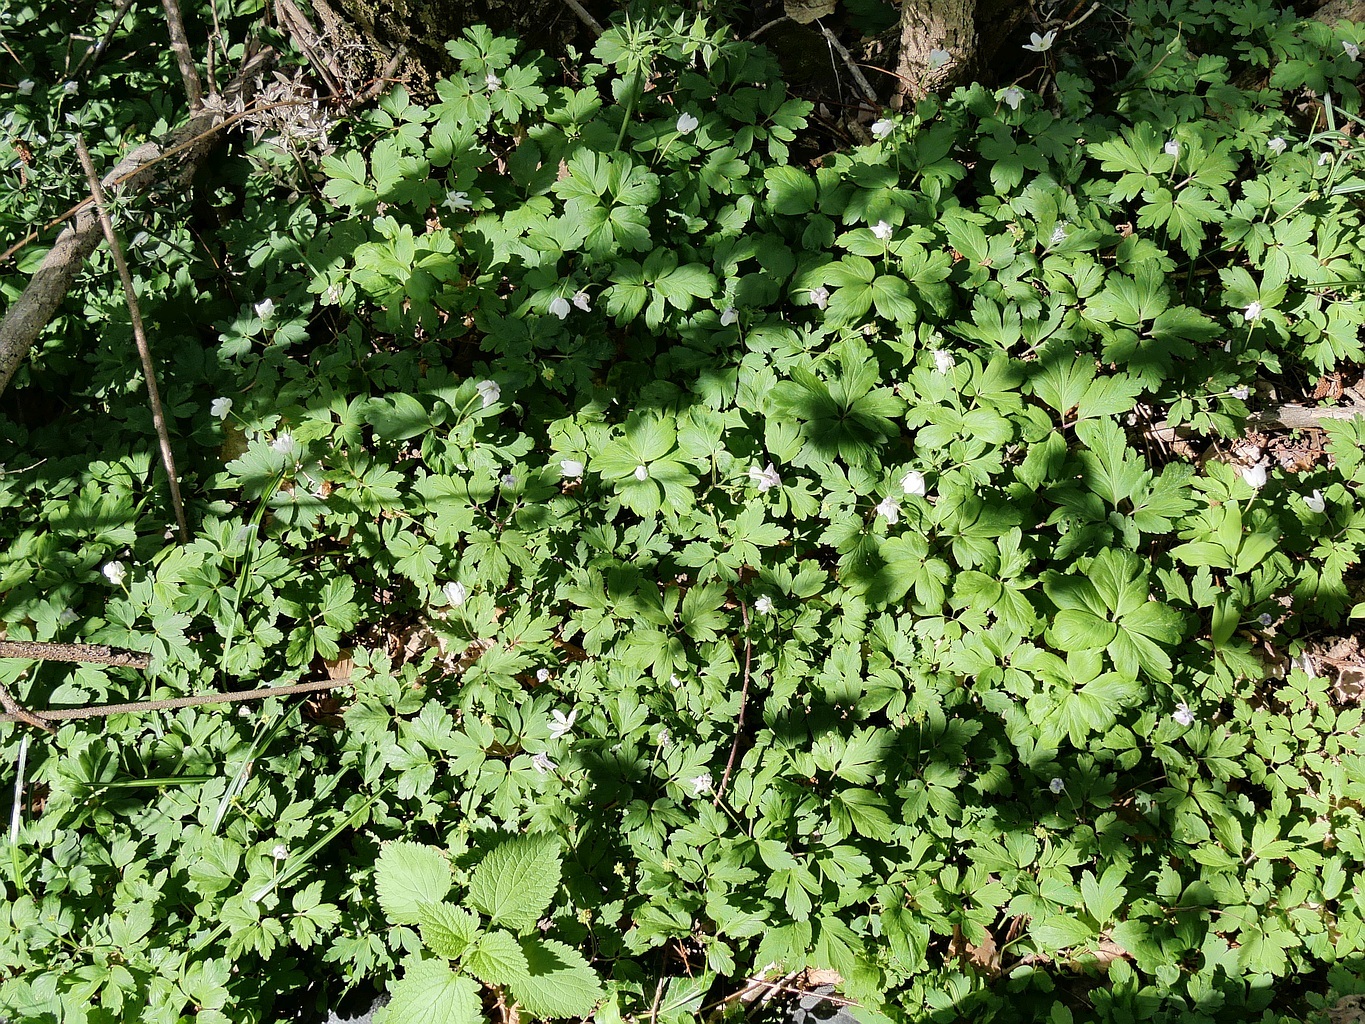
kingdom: Plantae
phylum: Tracheophyta
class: Magnoliopsida
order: Ranunculales
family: Ranunculaceae
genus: Anemone
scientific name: Anemone nemorosa
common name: Wood anemone
